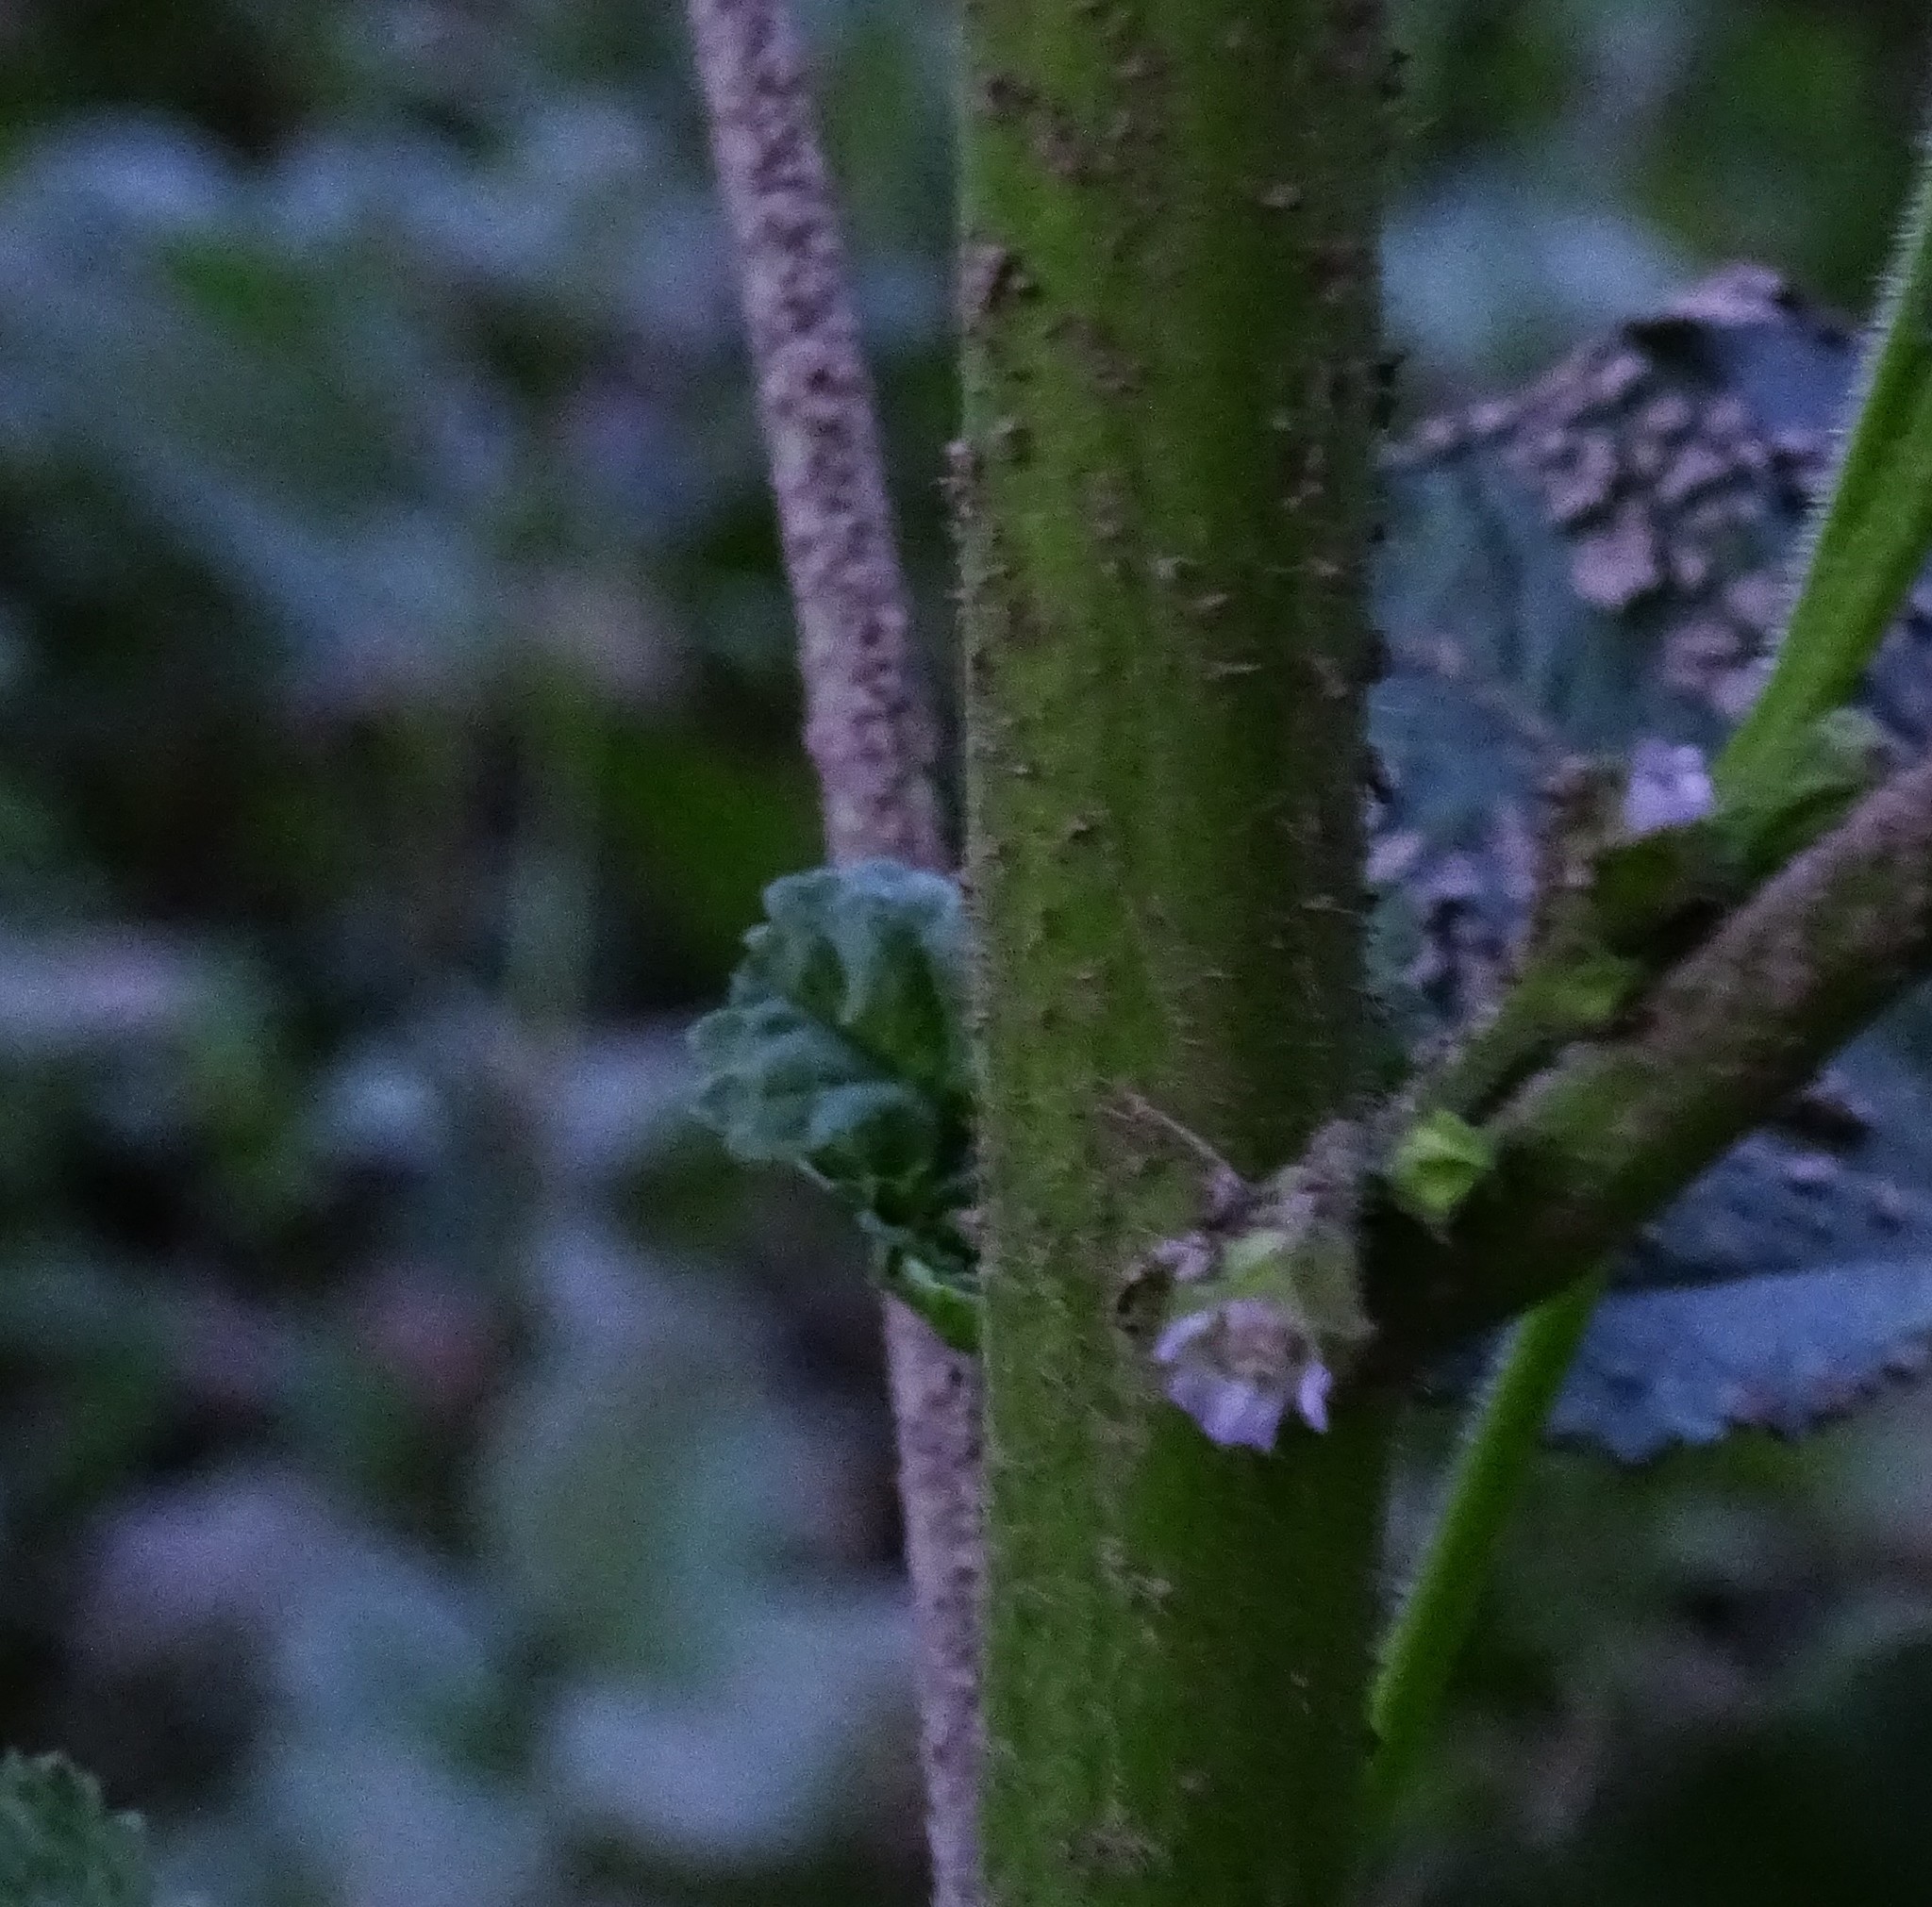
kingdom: Plantae
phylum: Tracheophyta
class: Magnoliopsida
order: Malvales
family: Malvaceae
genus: Malva
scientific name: Malva parviflora
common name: Least mallow
